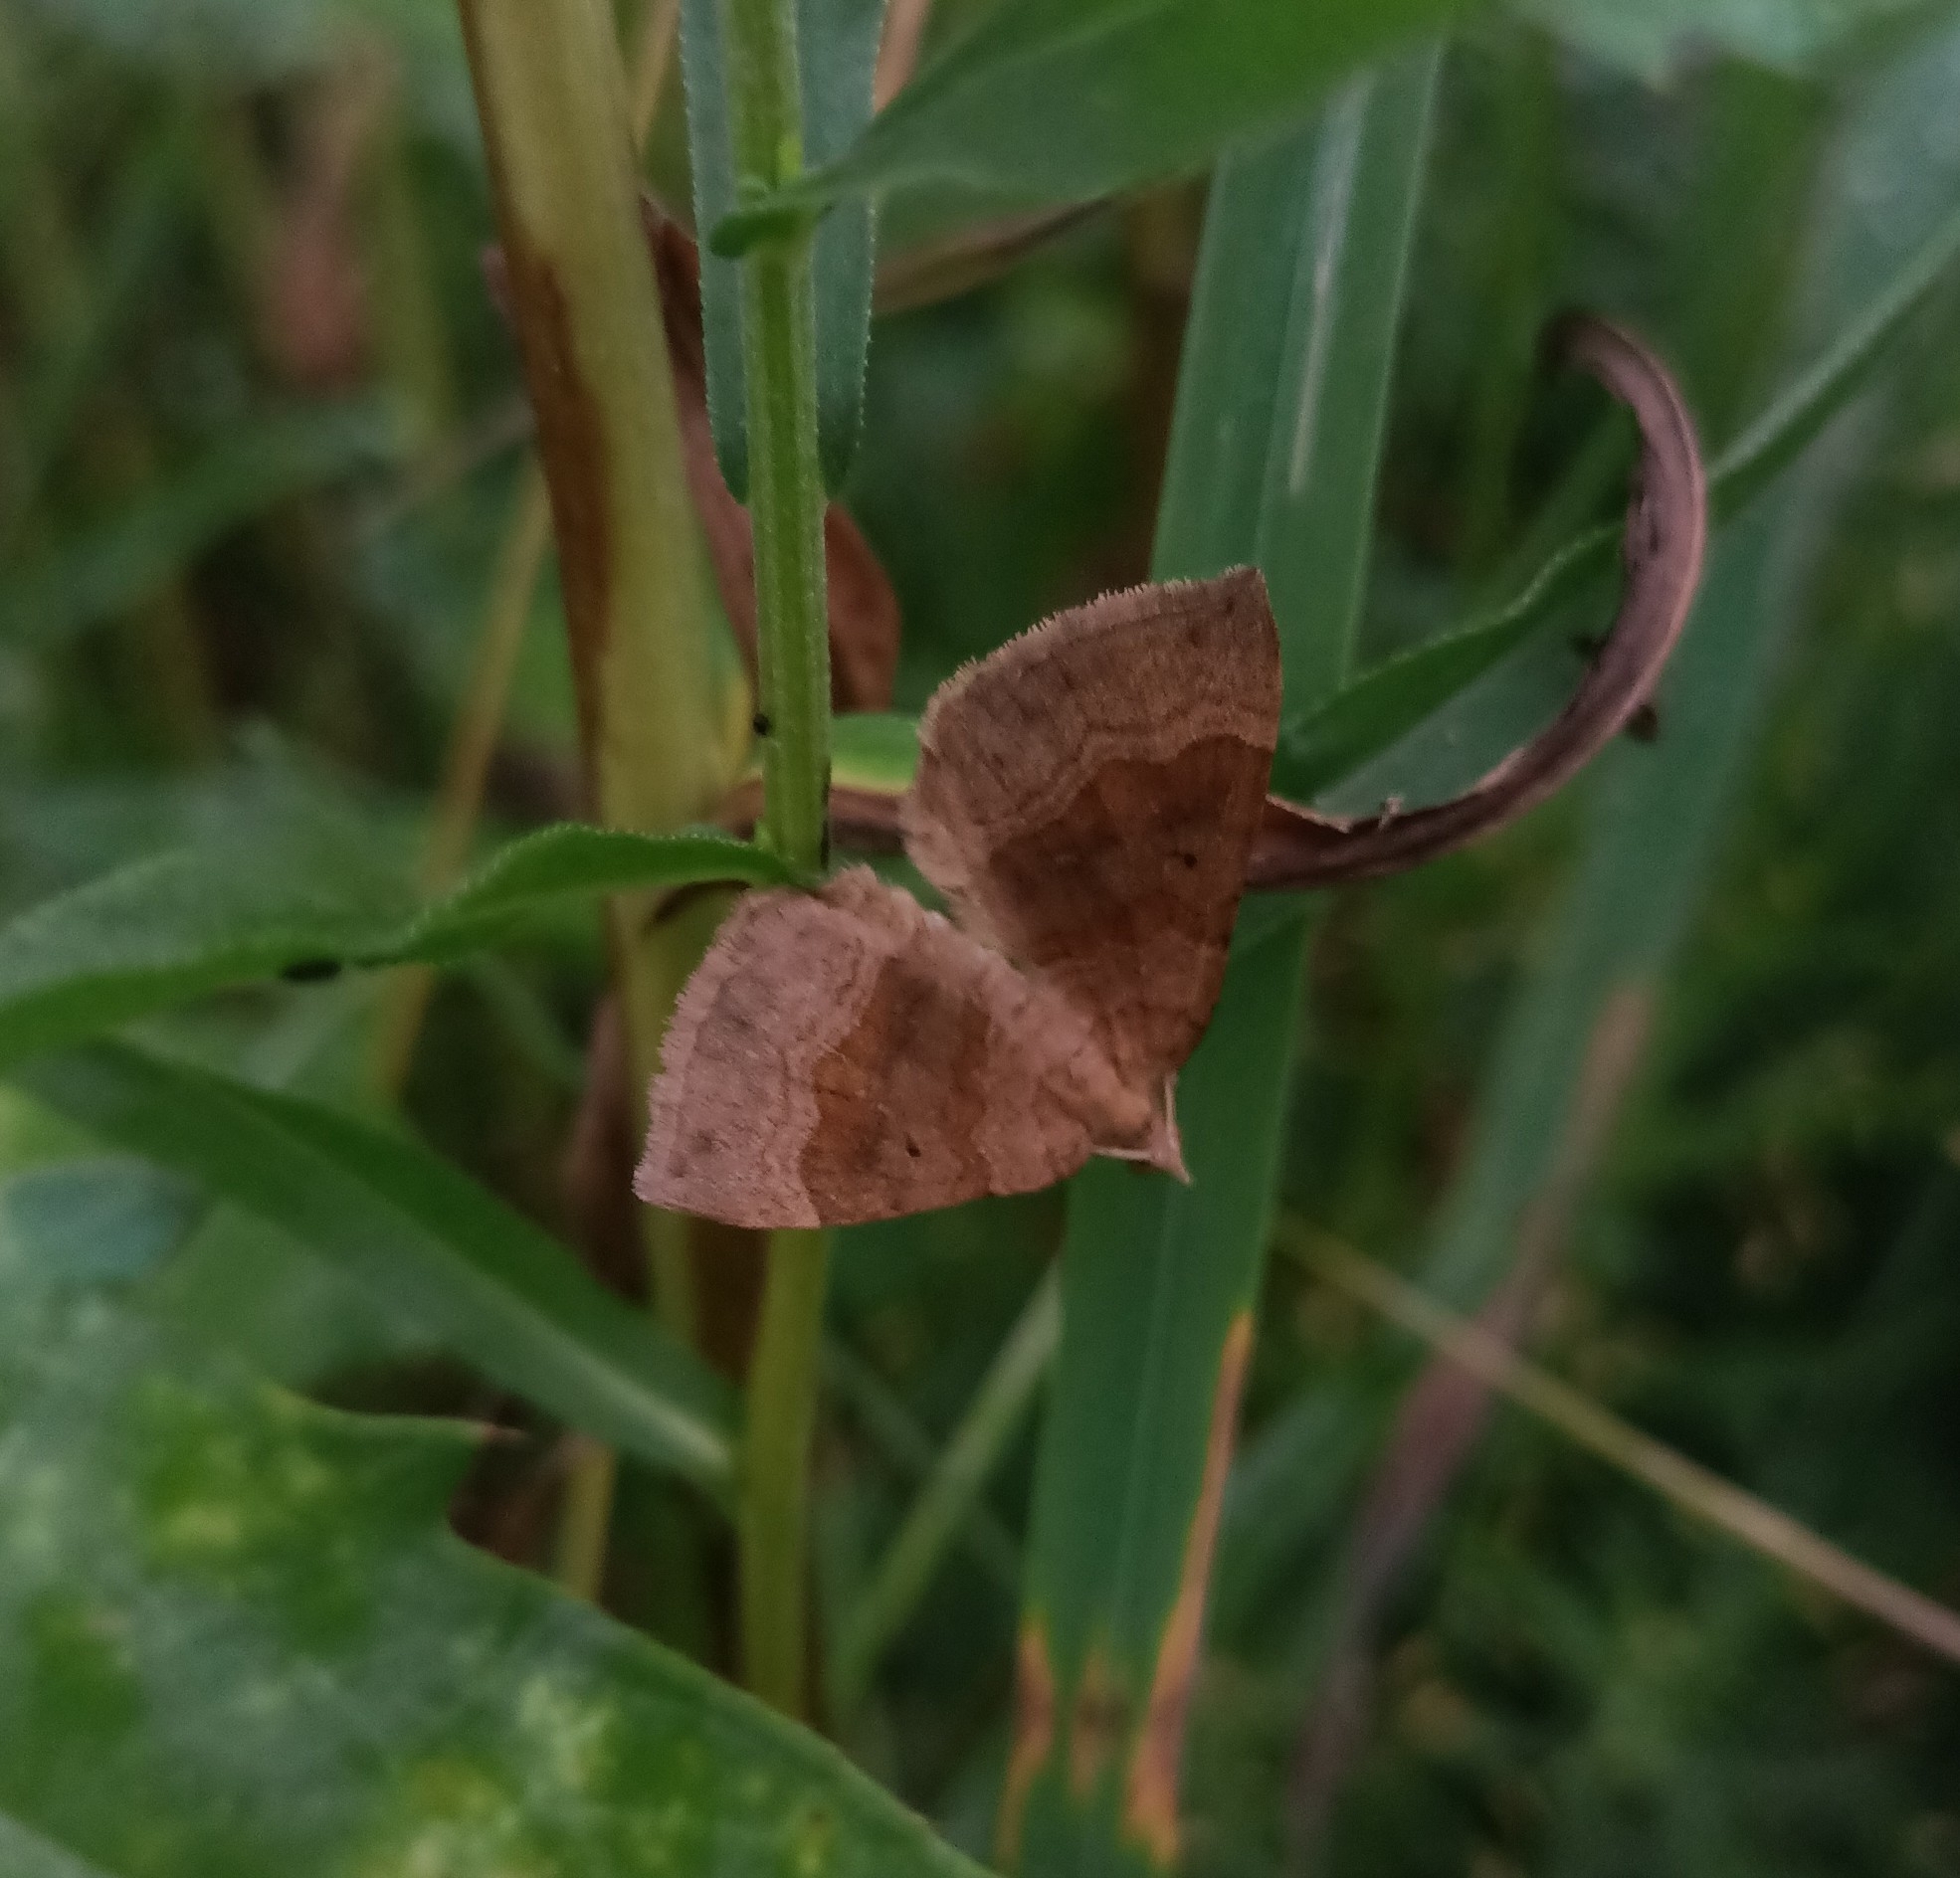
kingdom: Animalia
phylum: Arthropoda
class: Insecta
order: Lepidoptera
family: Geometridae
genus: Scotopteryx
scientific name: Scotopteryx chenopodiata
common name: Shaded broad-bar
